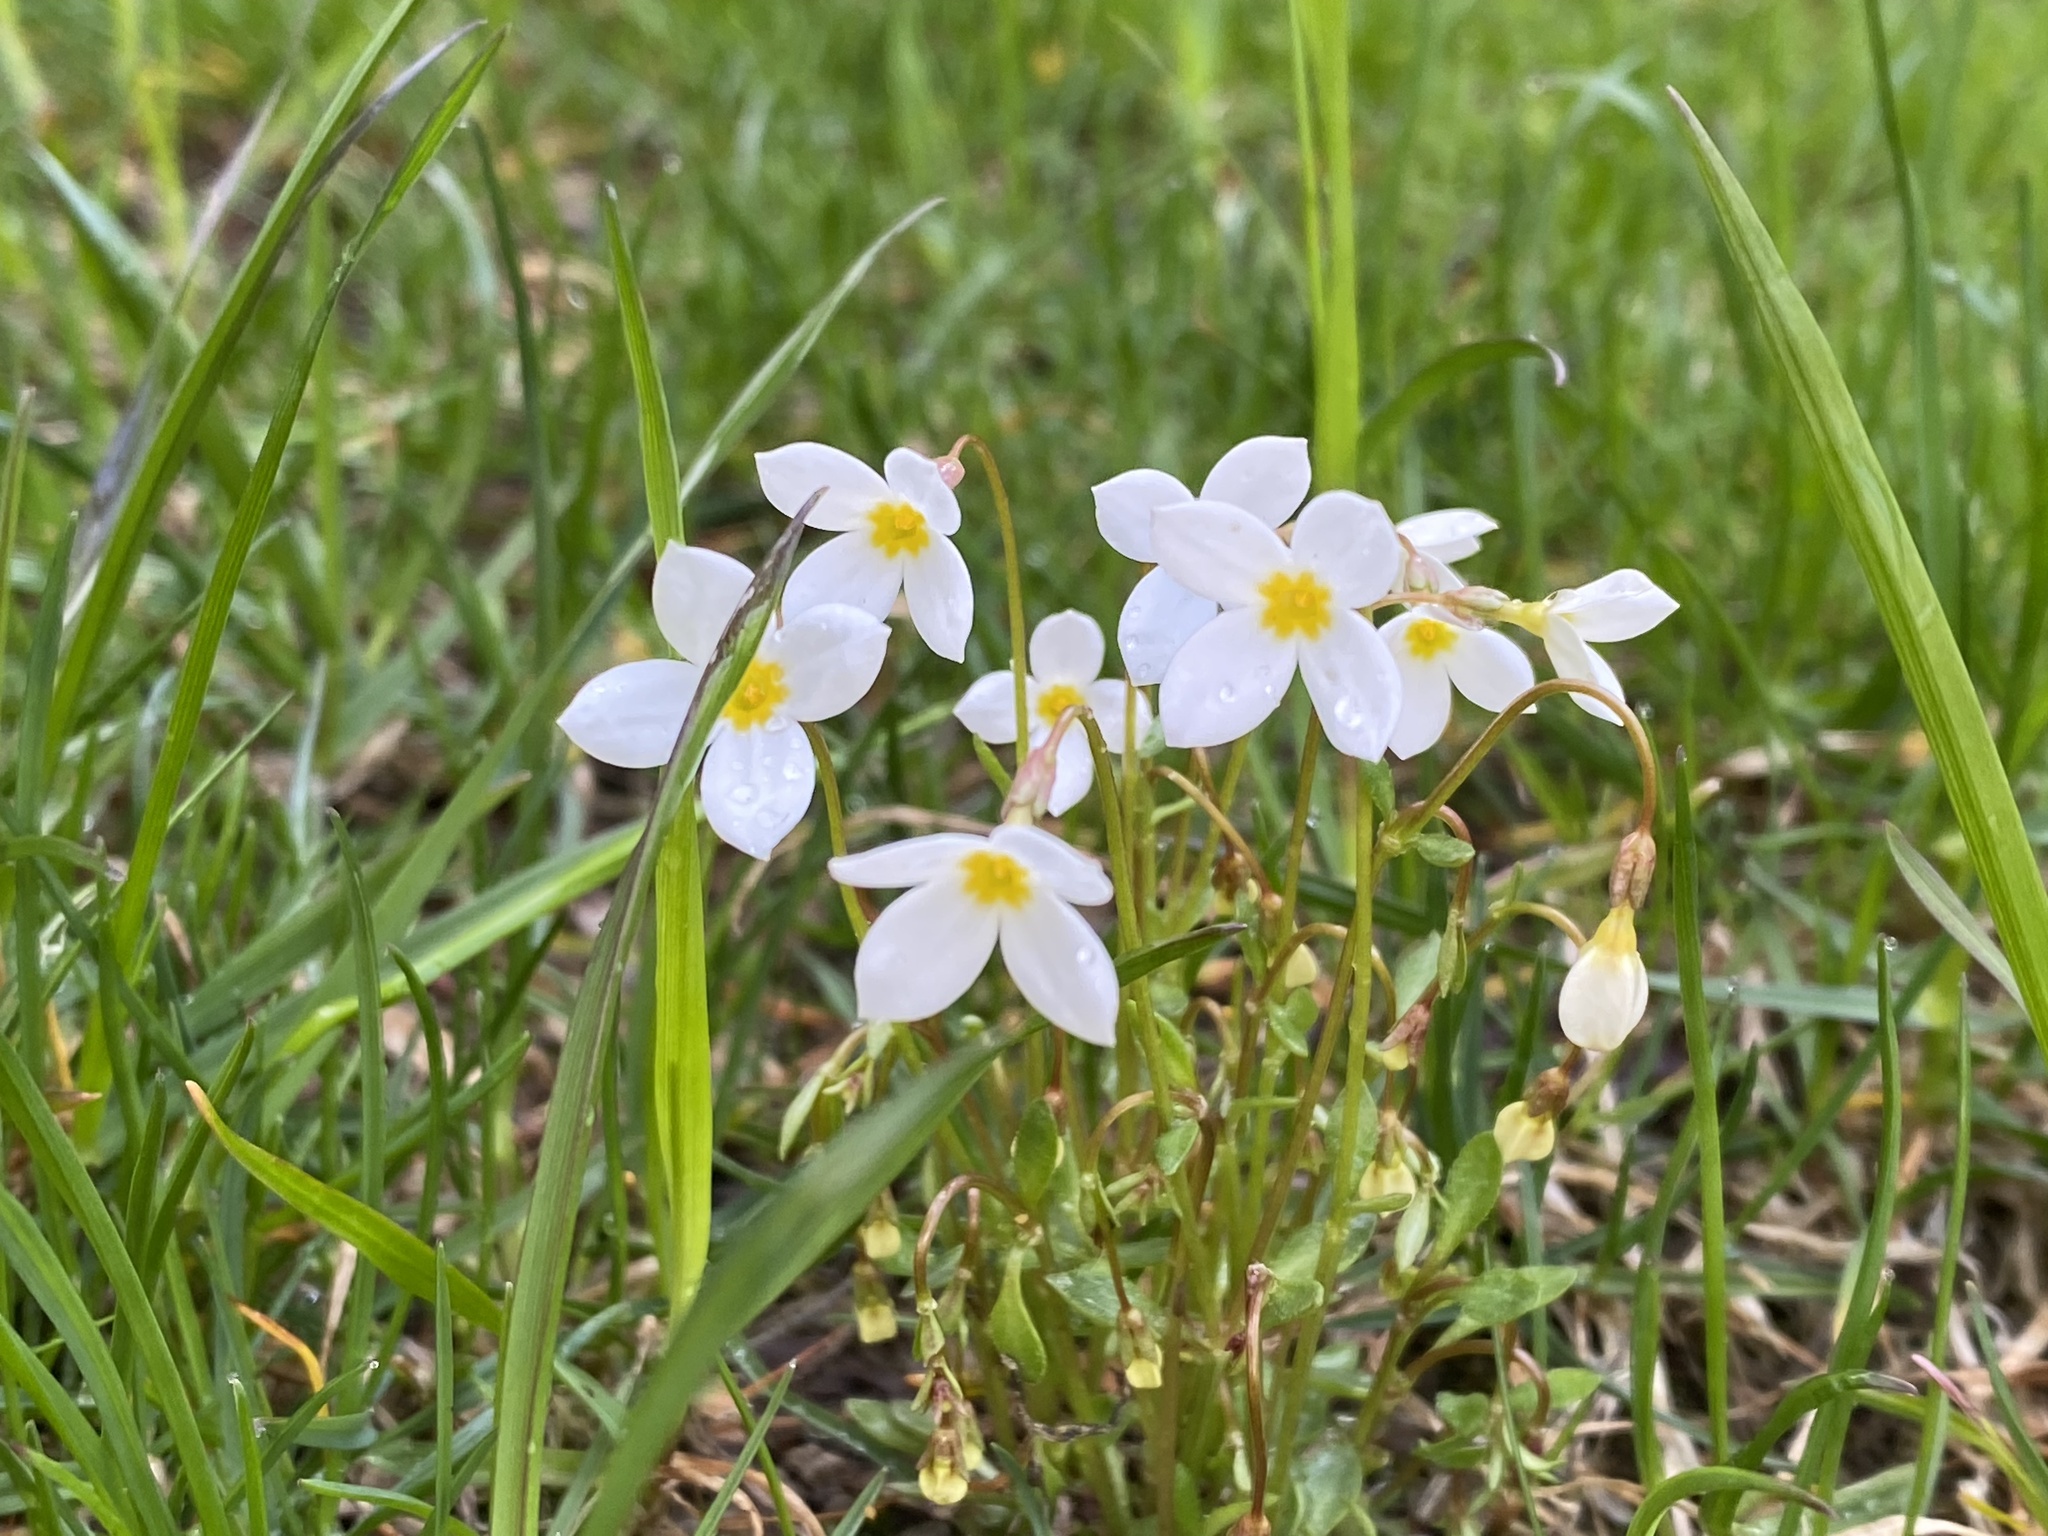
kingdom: Plantae
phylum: Tracheophyta
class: Magnoliopsida
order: Gentianales
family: Rubiaceae
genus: Houstonia
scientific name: Houstonia caerulea
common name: Bluets
